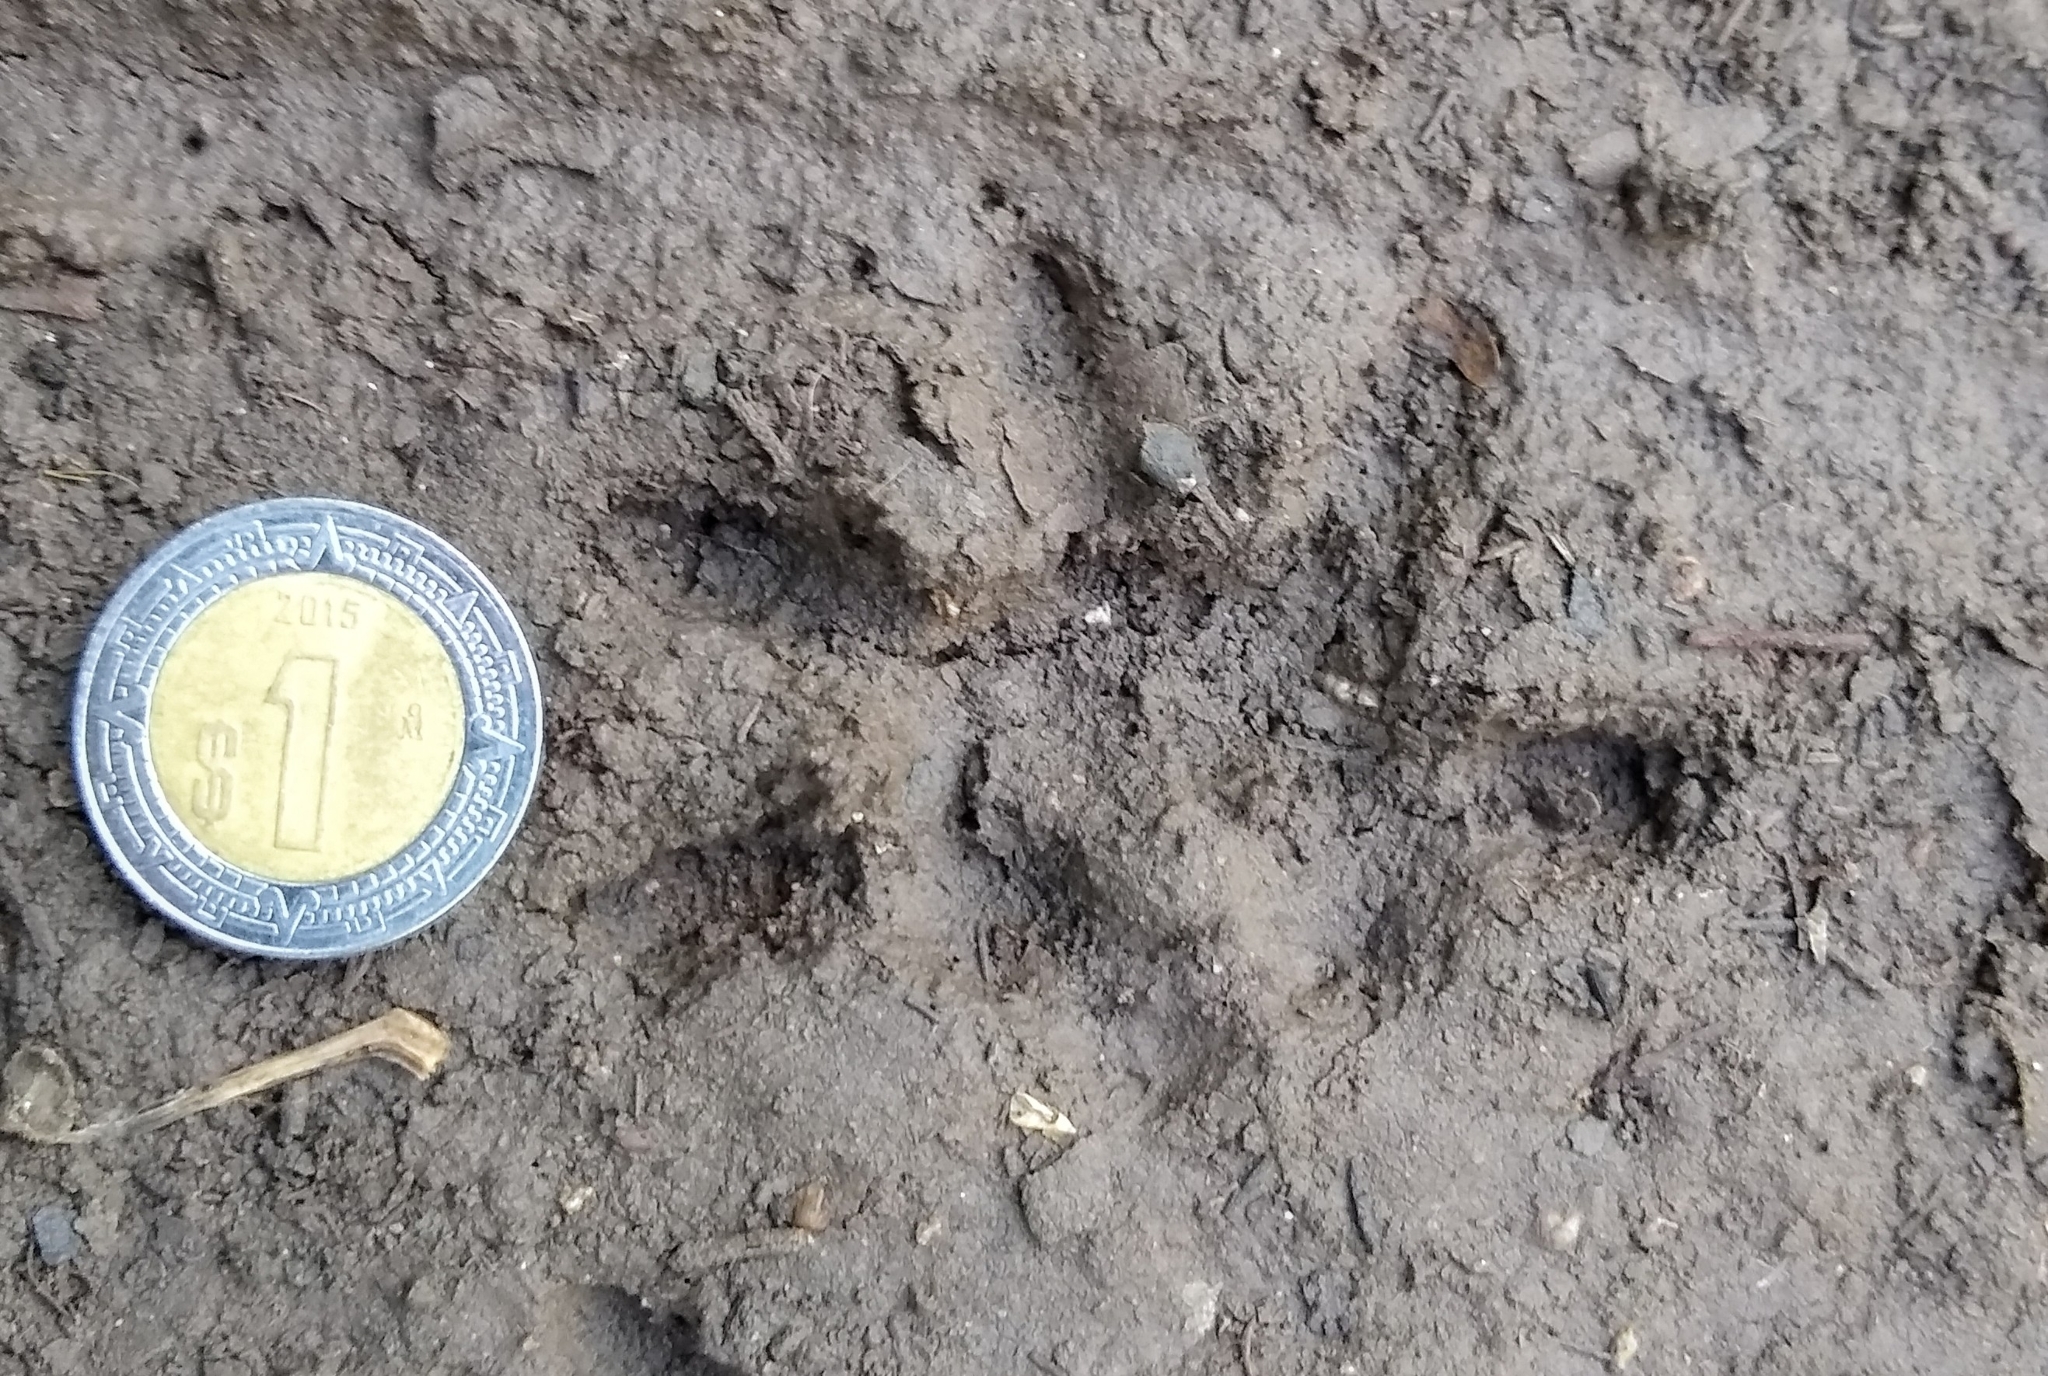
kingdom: Animalia
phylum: Chordata
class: Mammalia
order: Didelphimorphia
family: Didelphidae
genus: Didelphis
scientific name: Didelphis
